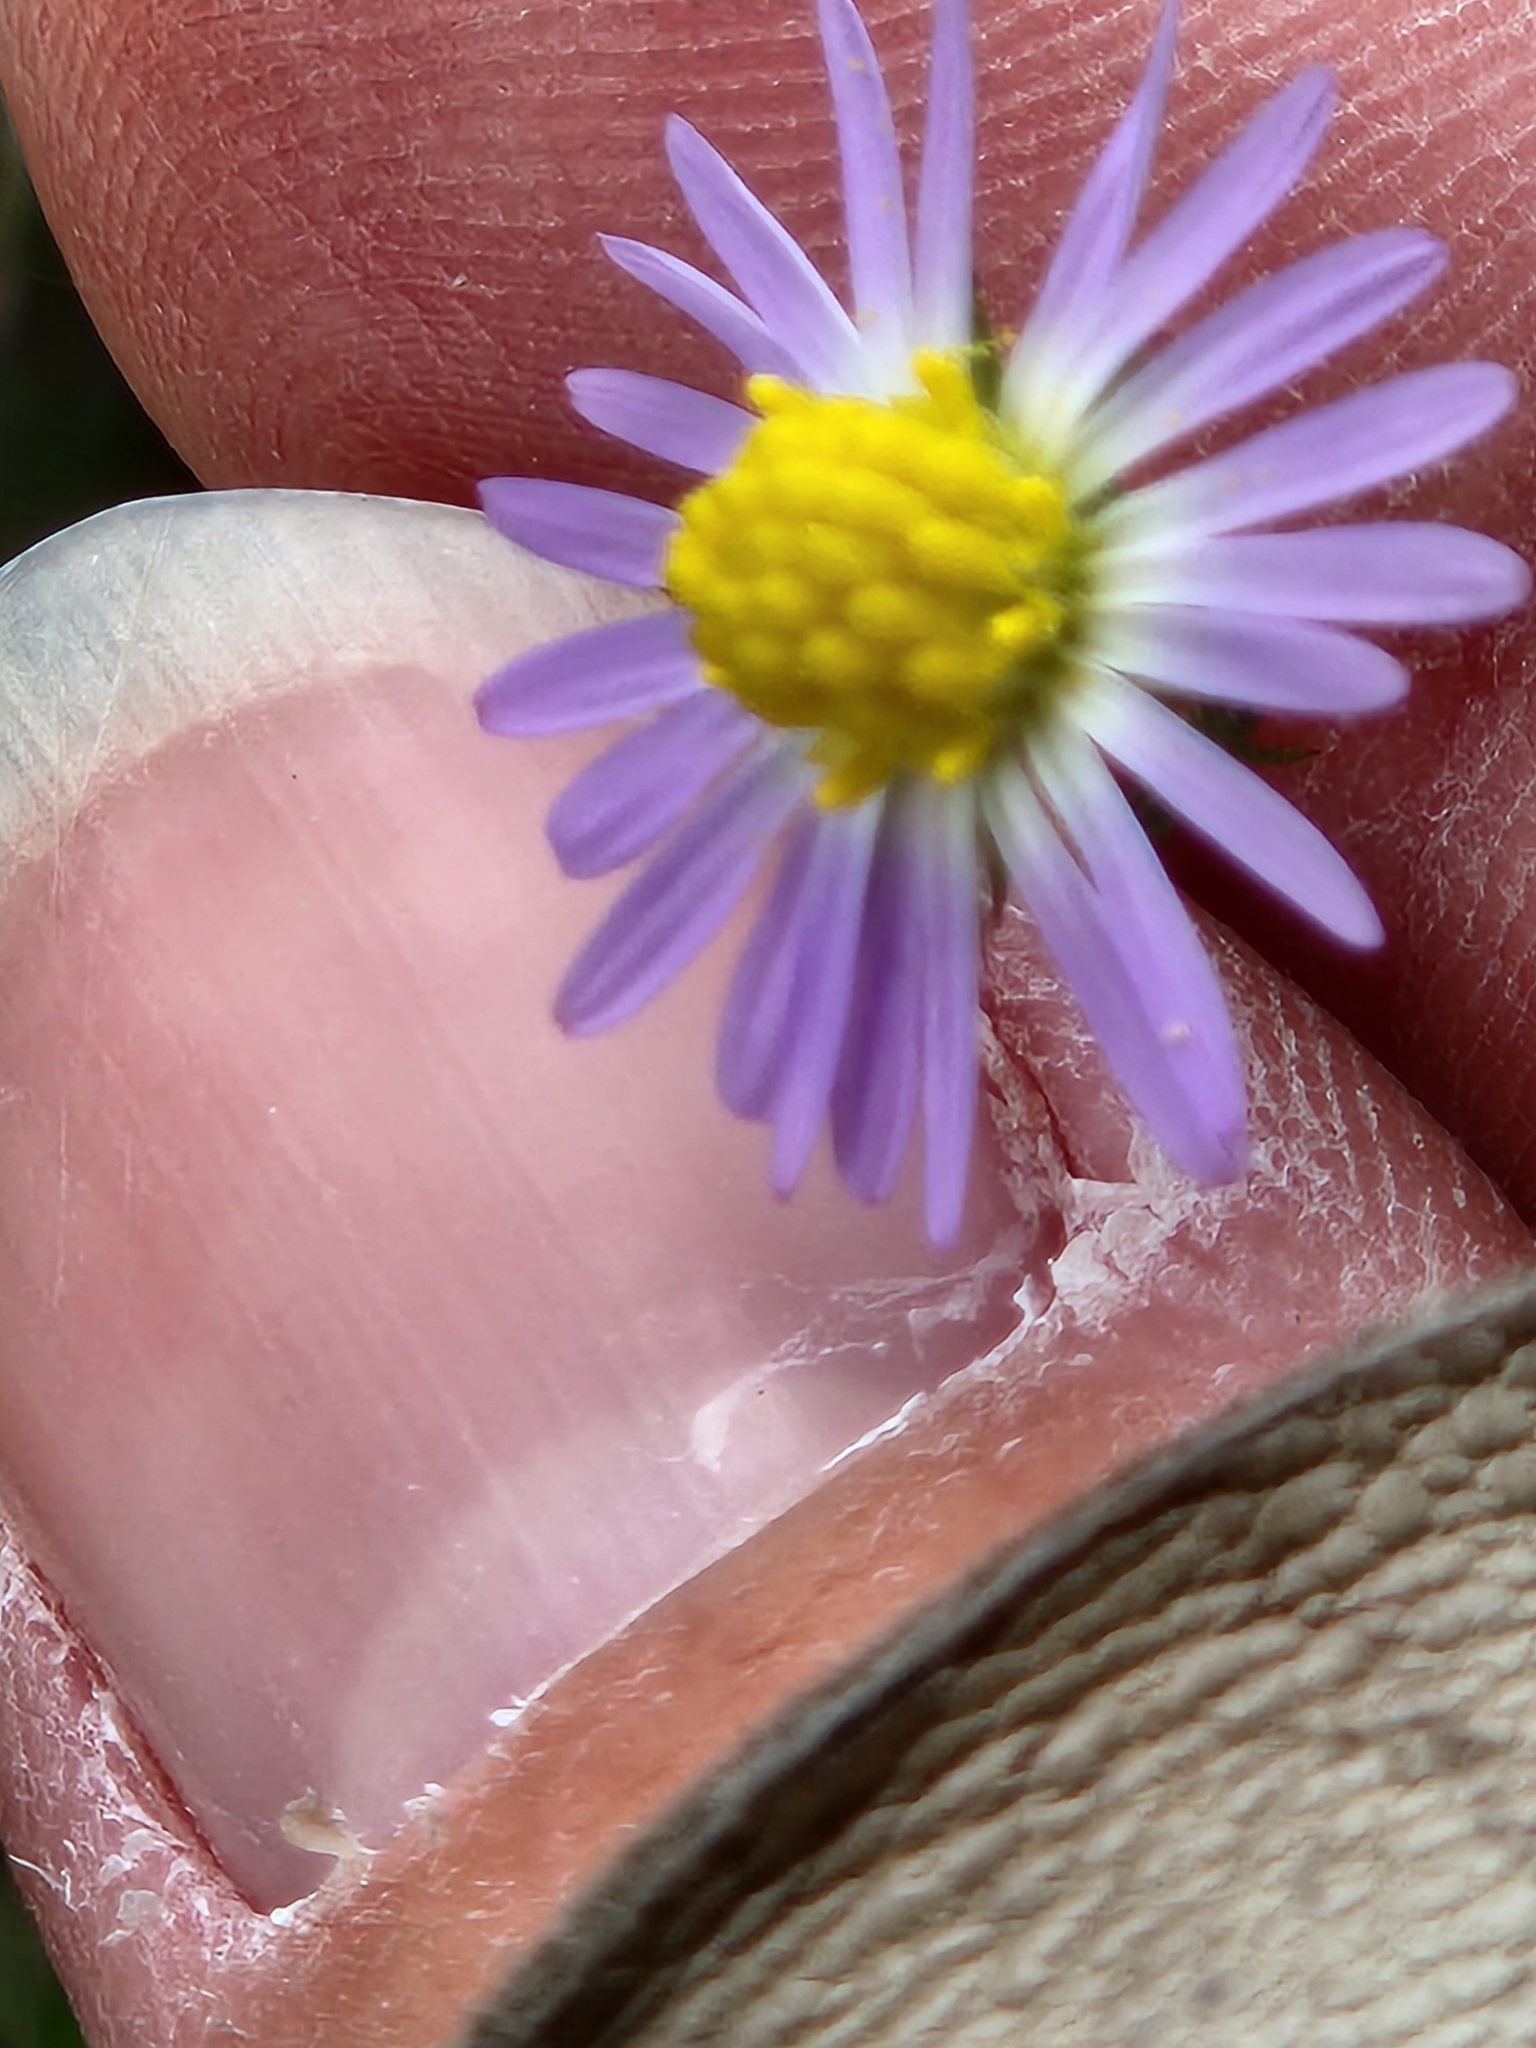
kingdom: Plantae
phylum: Tracheophyta
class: Magnoliopsida
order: Asterales
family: Asteraceae
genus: Symphyotrichum
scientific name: Symphyotrichum divaricatum
